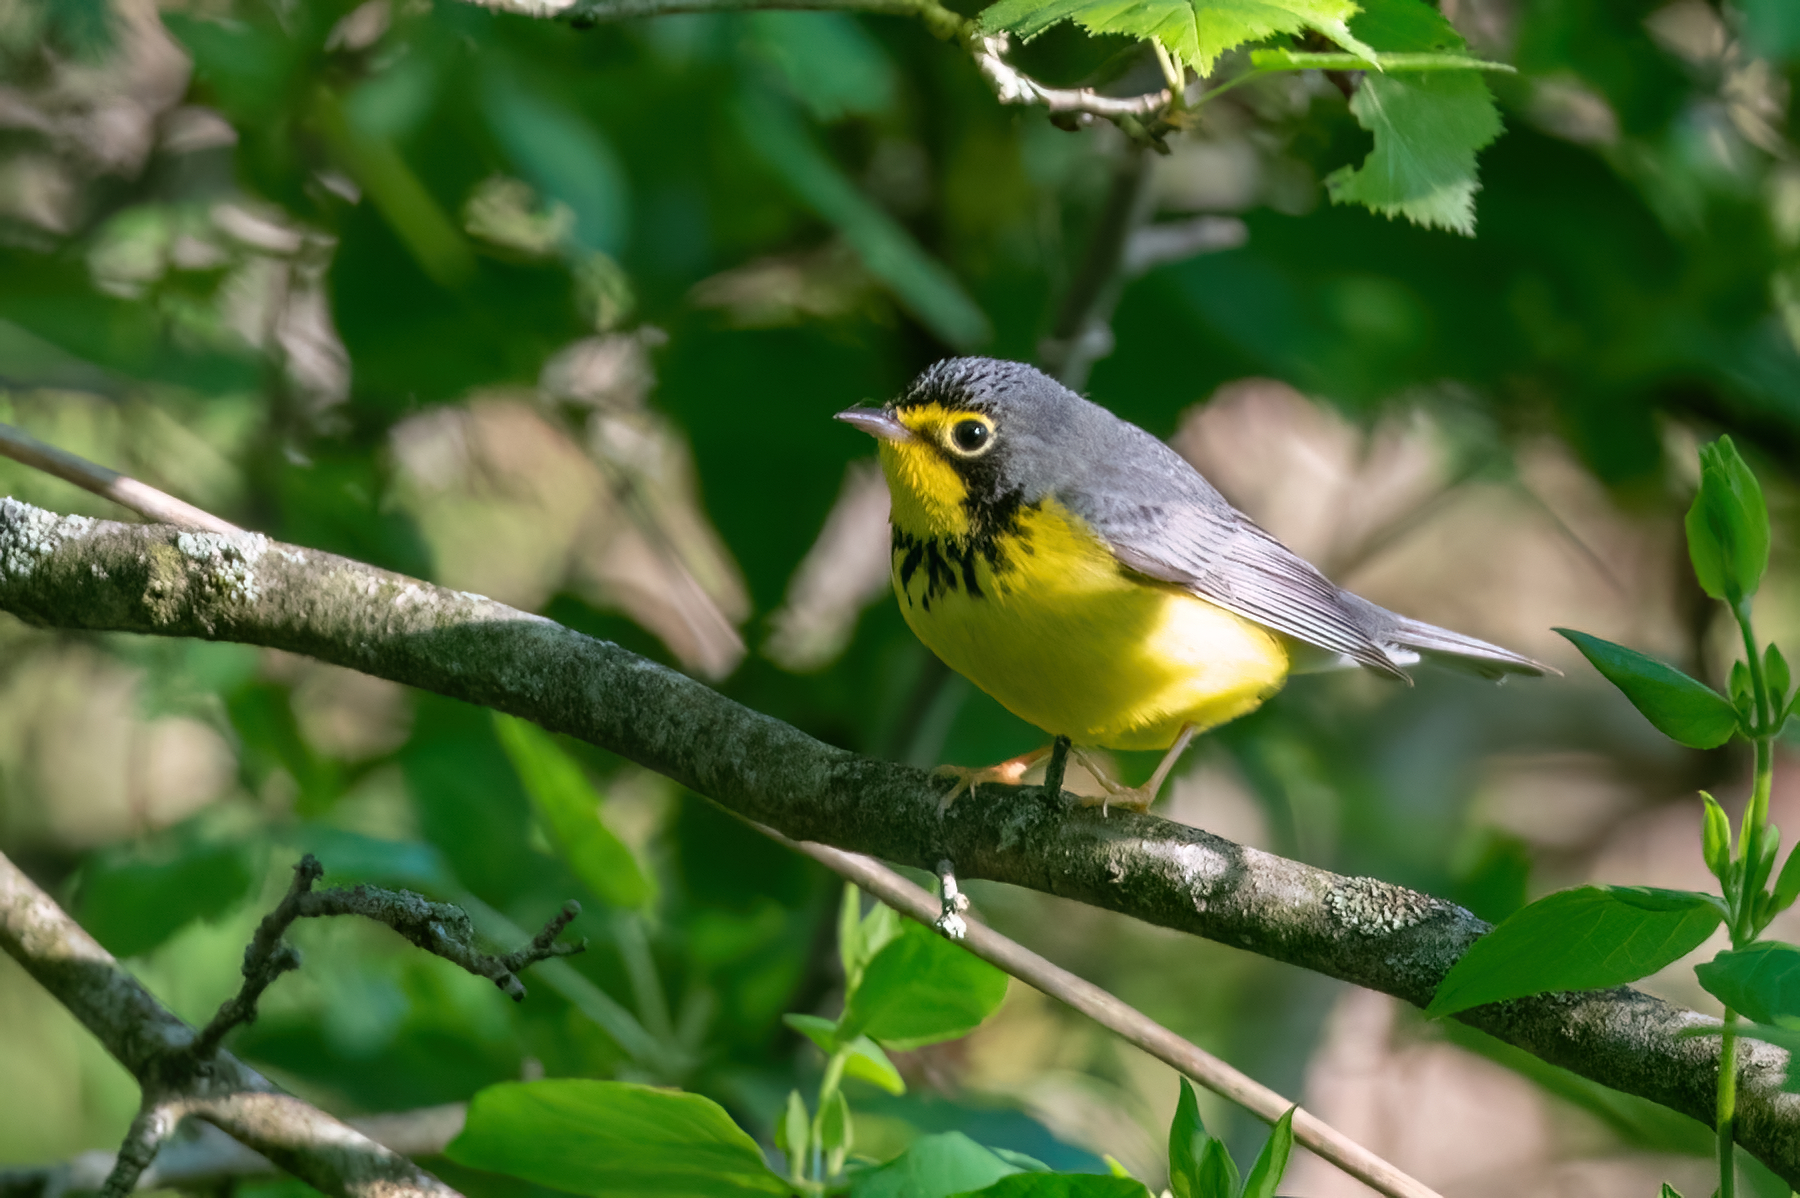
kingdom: Animalia
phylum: Chordata
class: Aves
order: Passeriformes
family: Parulidae
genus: Cardellina
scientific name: Cardellina canadensis
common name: Canada warbler
